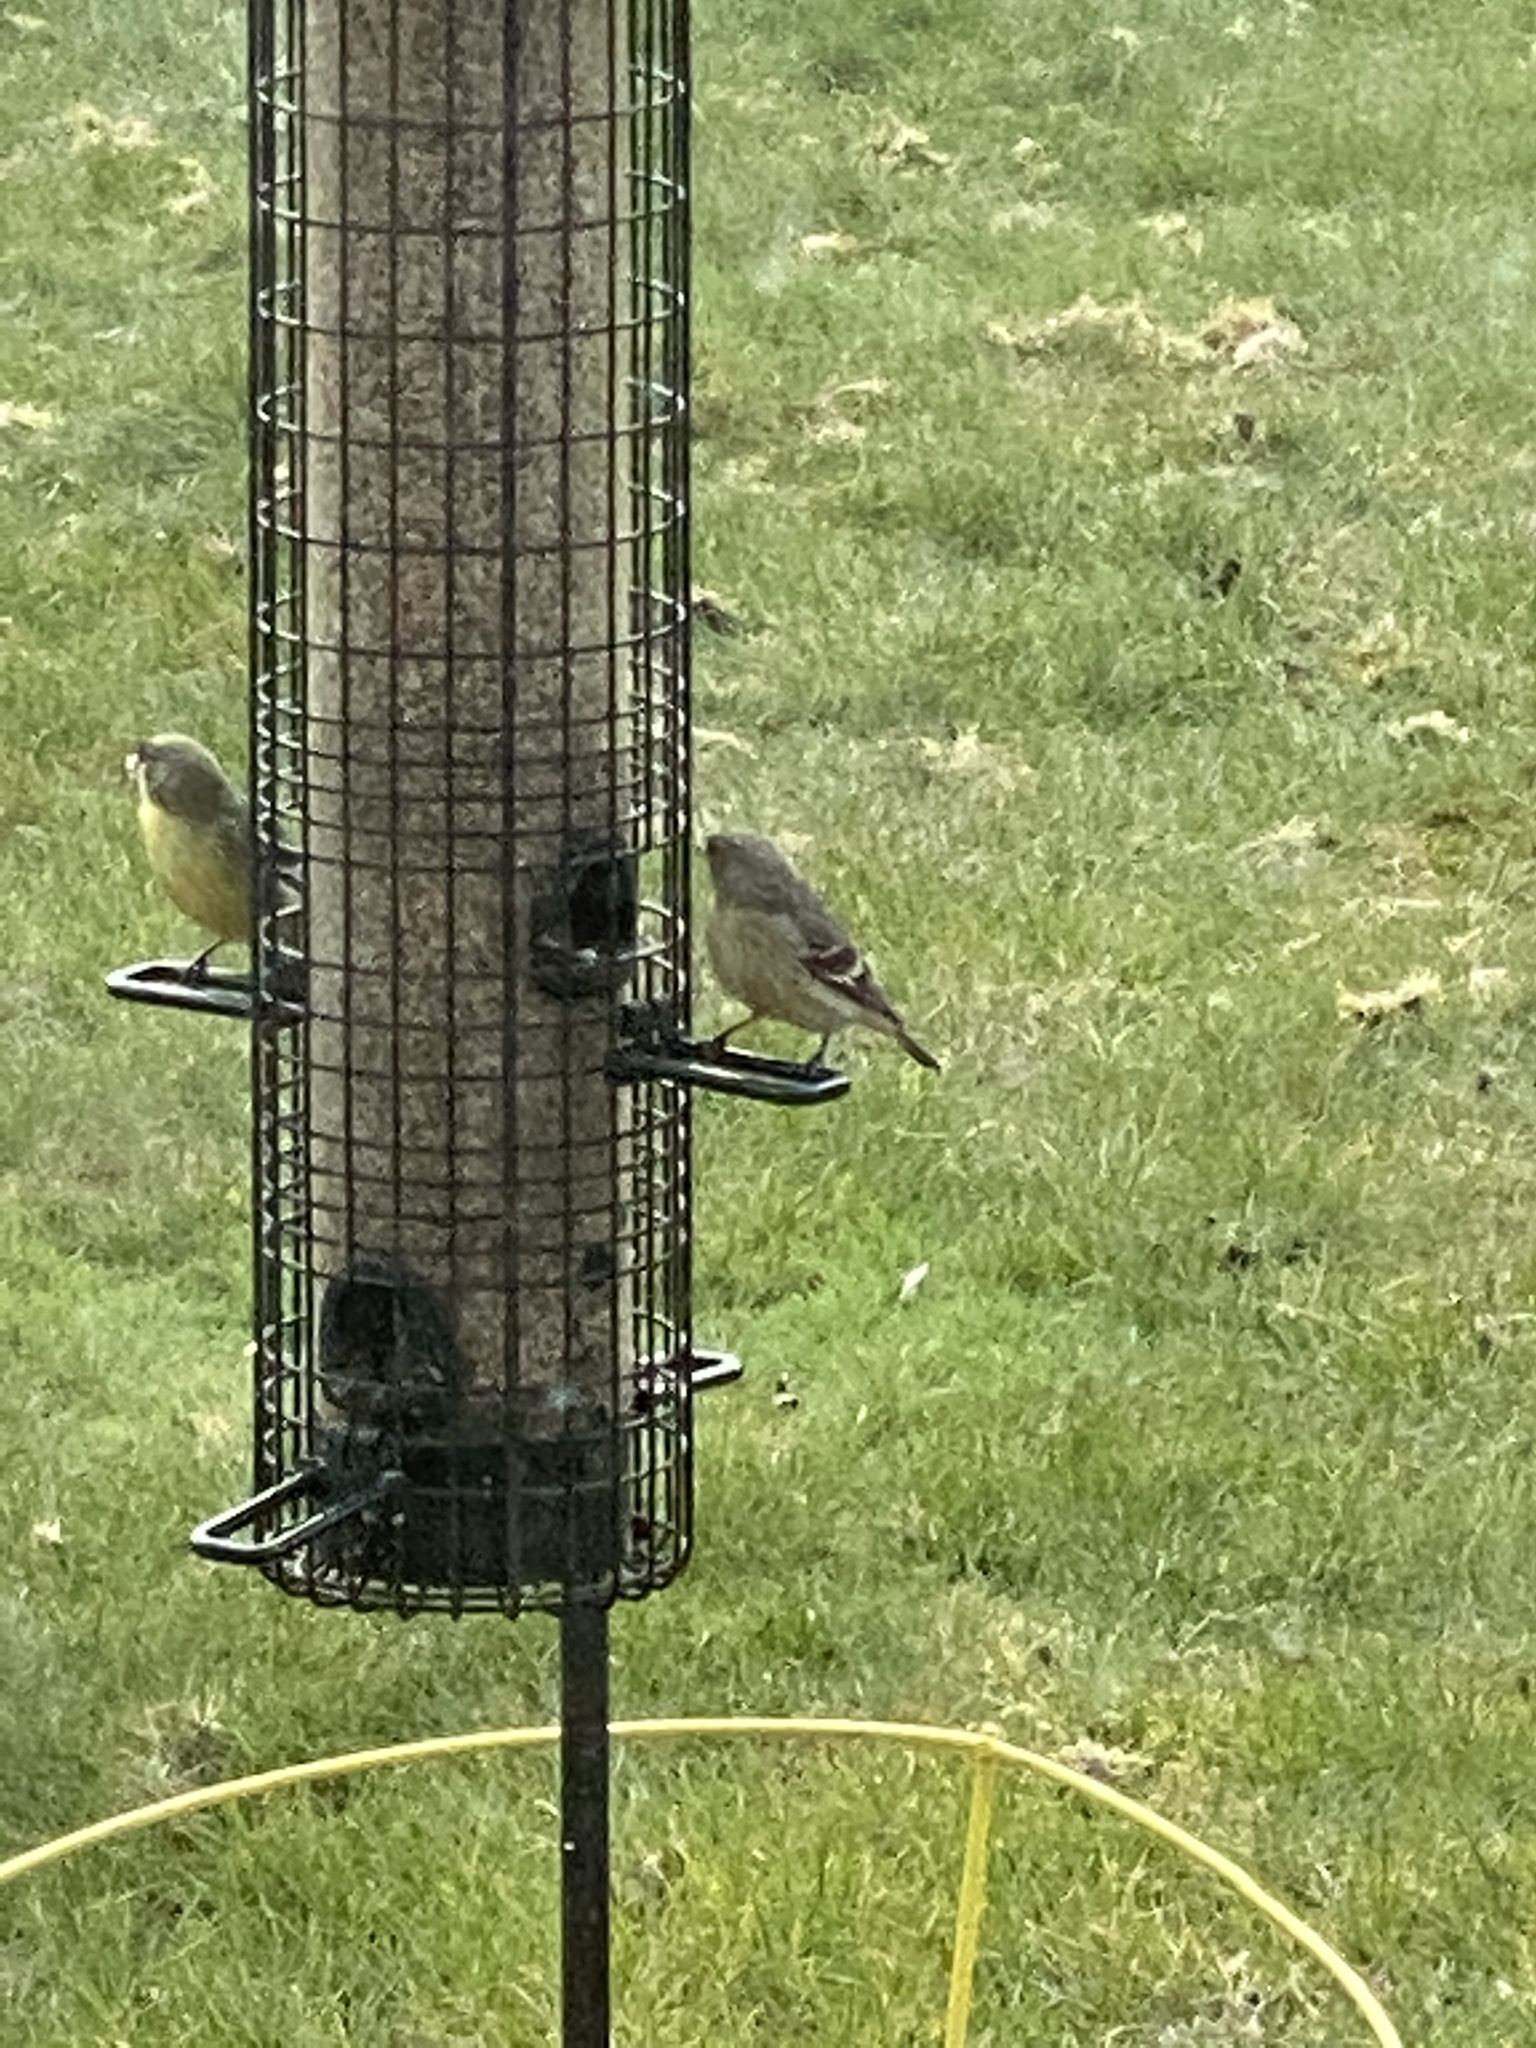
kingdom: Animalia
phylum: Chordata
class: Aves
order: Passeriformes
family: Fringillidae
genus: Spinus
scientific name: Spinus psaltria
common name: Lesser goldfinch
